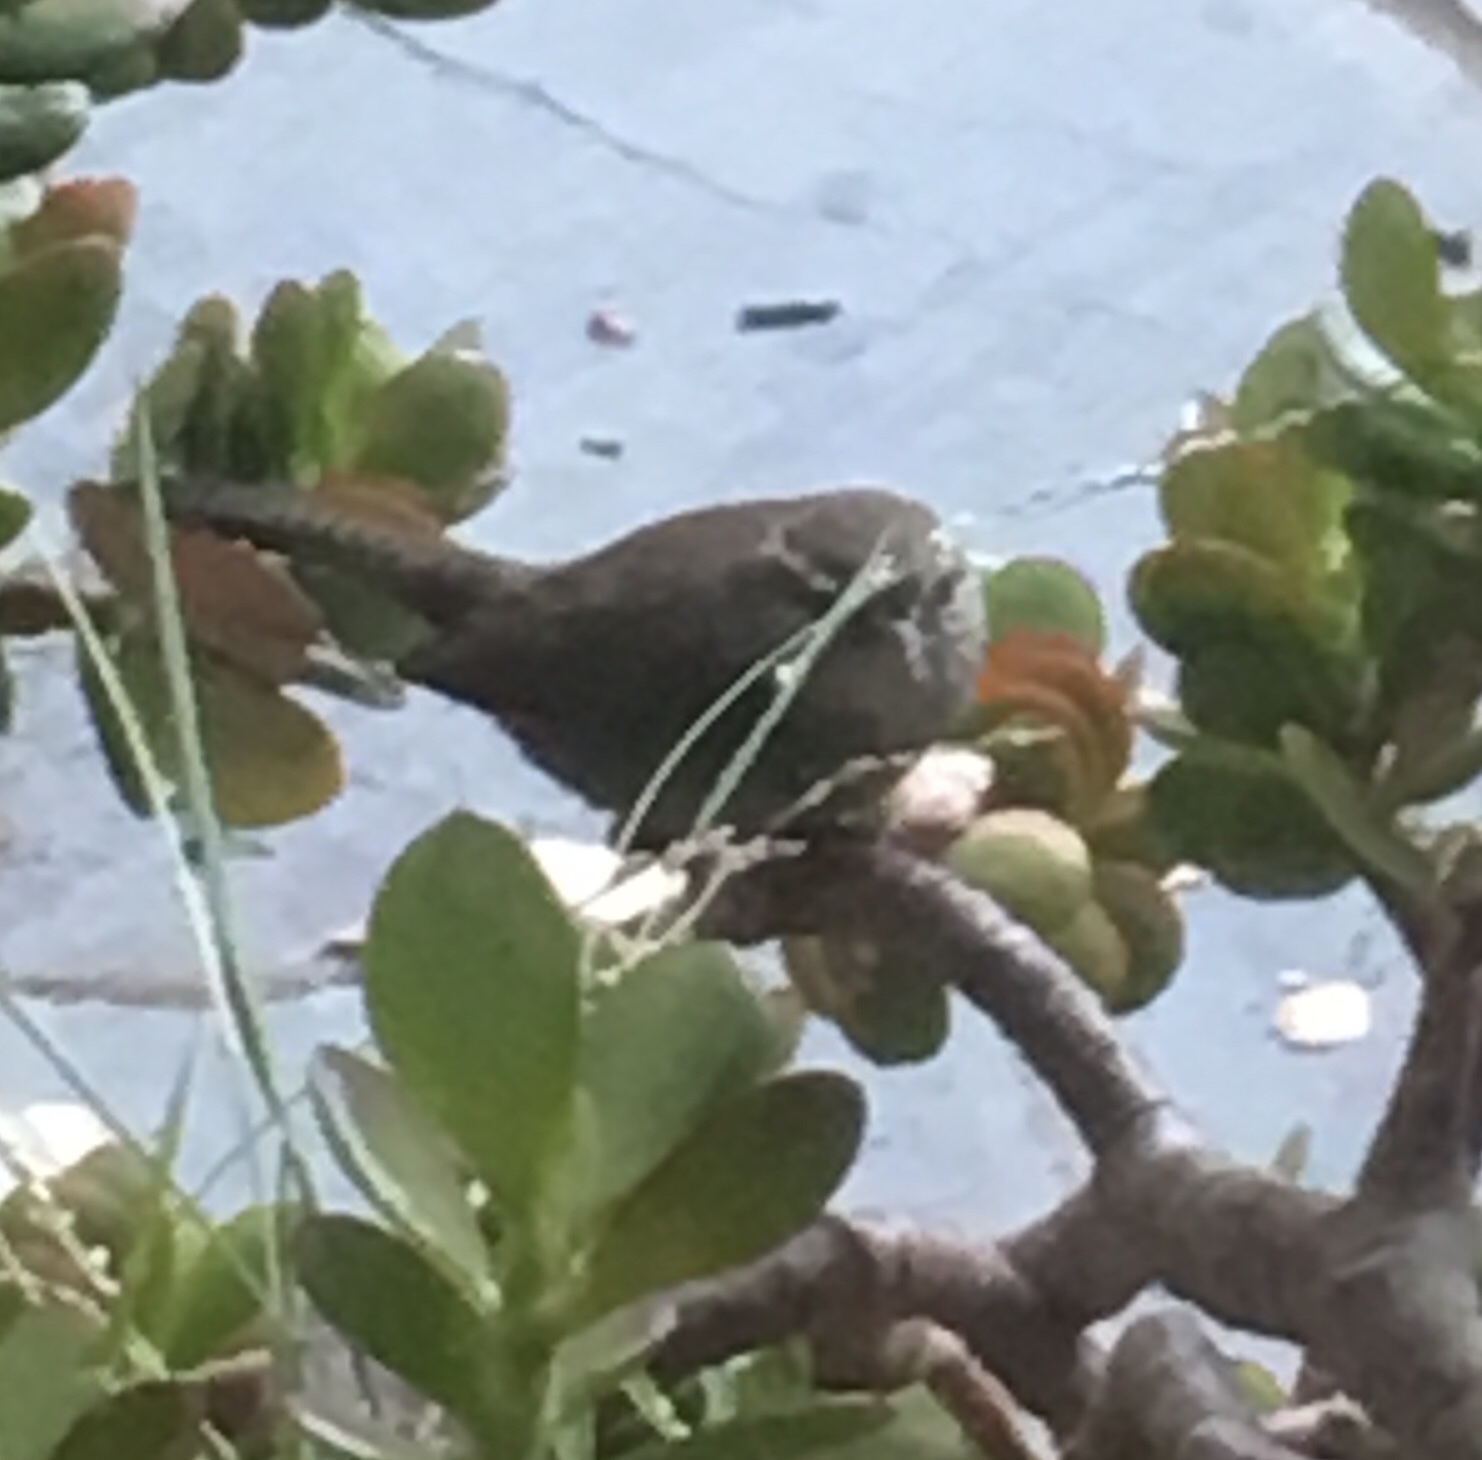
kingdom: Animalia
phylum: Chordata
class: Aves
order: Passeriformes
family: Troglodytidae
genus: Thryomanes
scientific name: Thryomanes bewickii
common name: Bewick's wren
